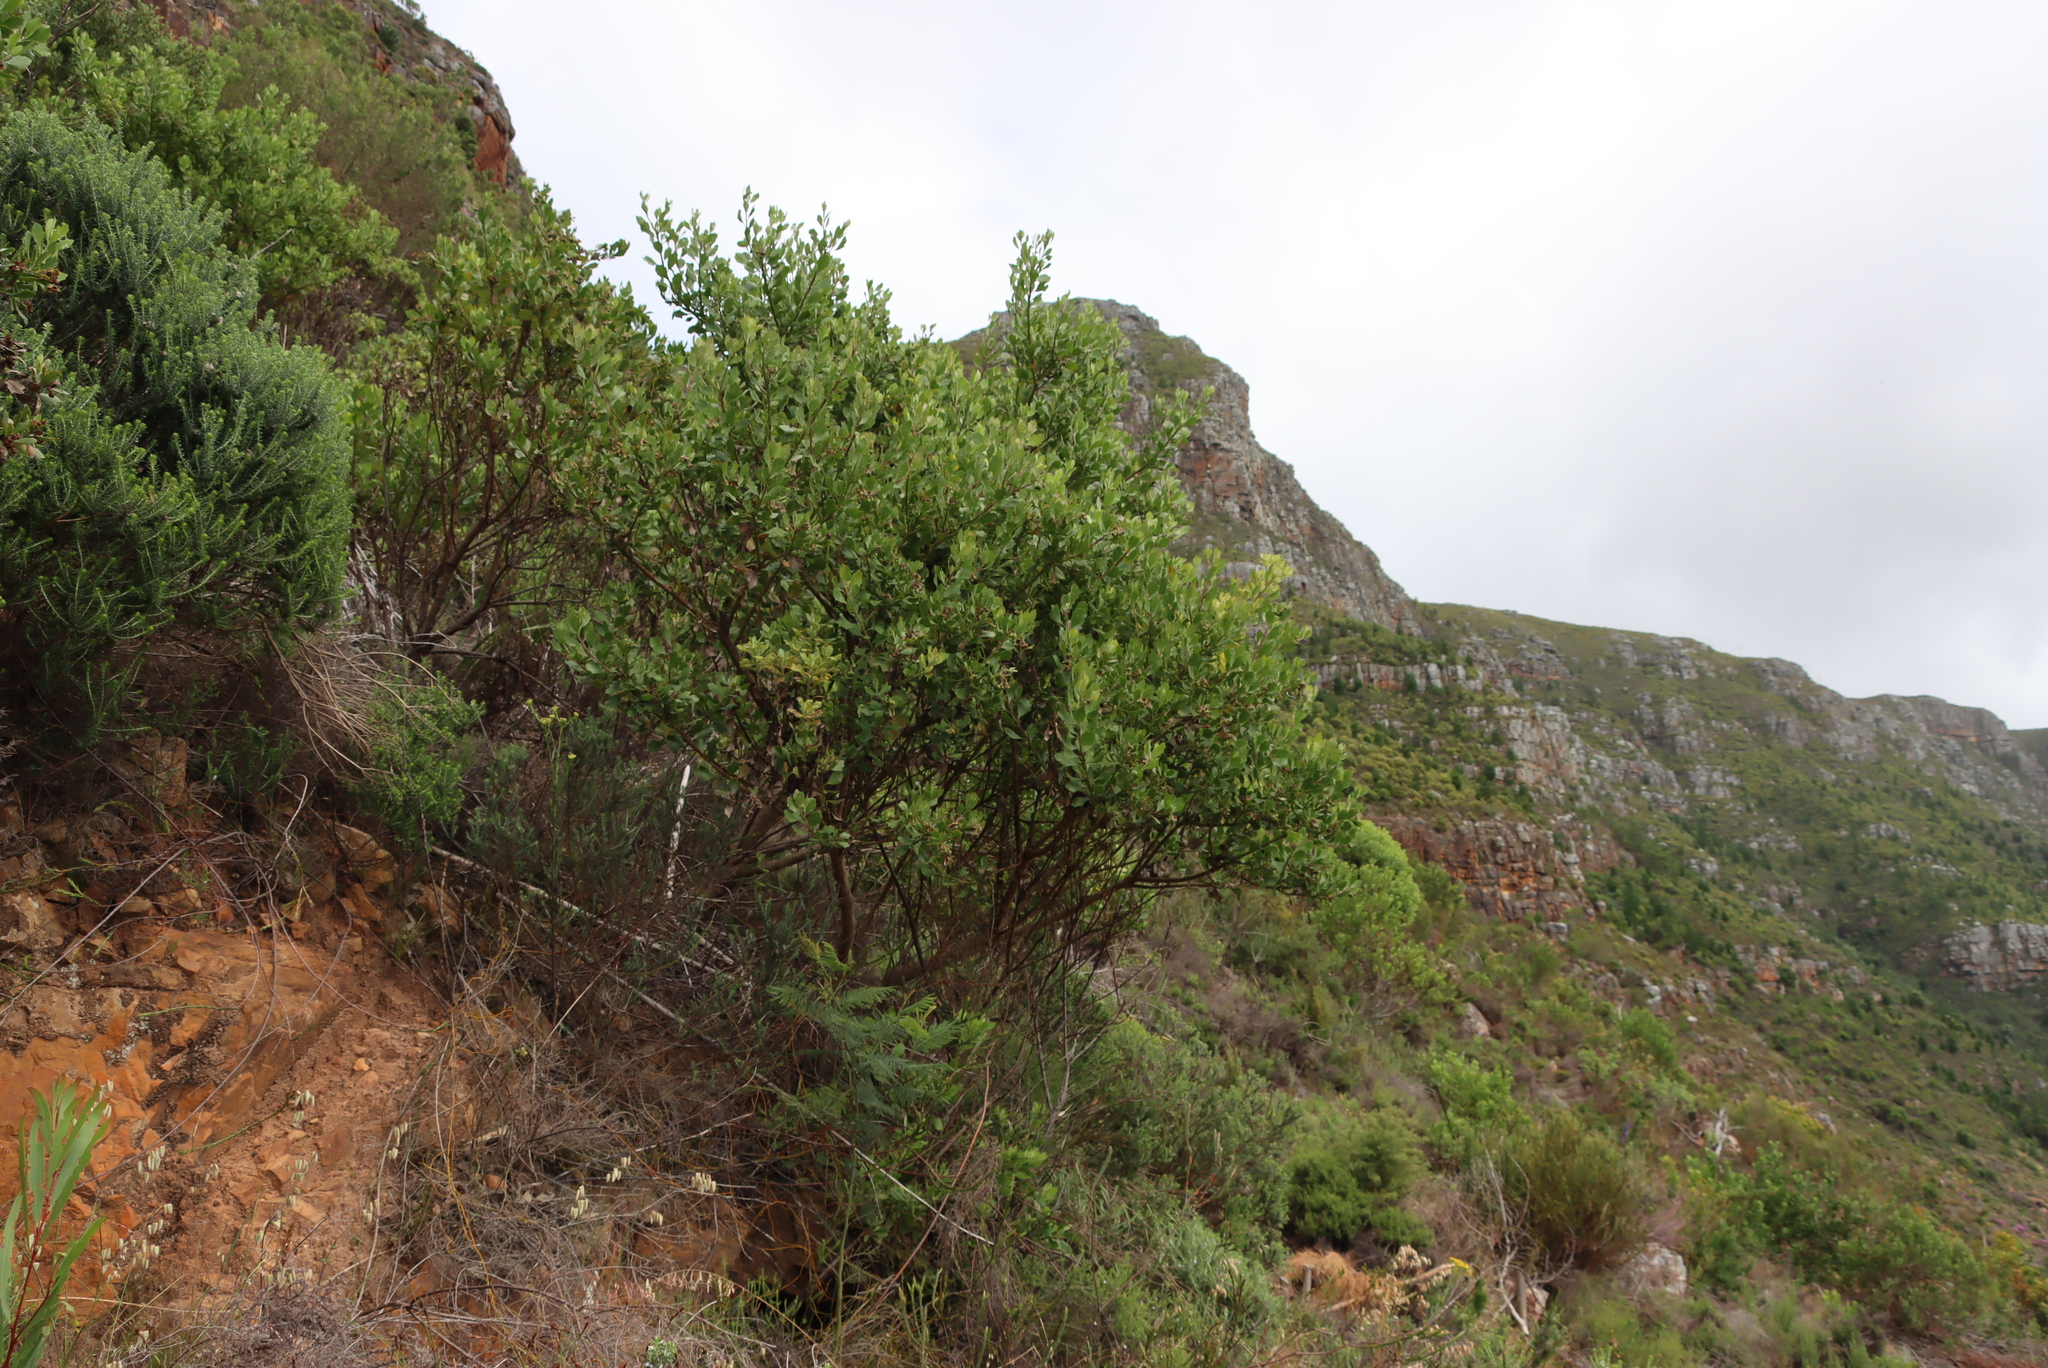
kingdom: Plantae
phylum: Tracheophyta
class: Magnoliopsida
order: Asterales
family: Asteraceae
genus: Osteospermum
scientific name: Osteospermum moniliferum
